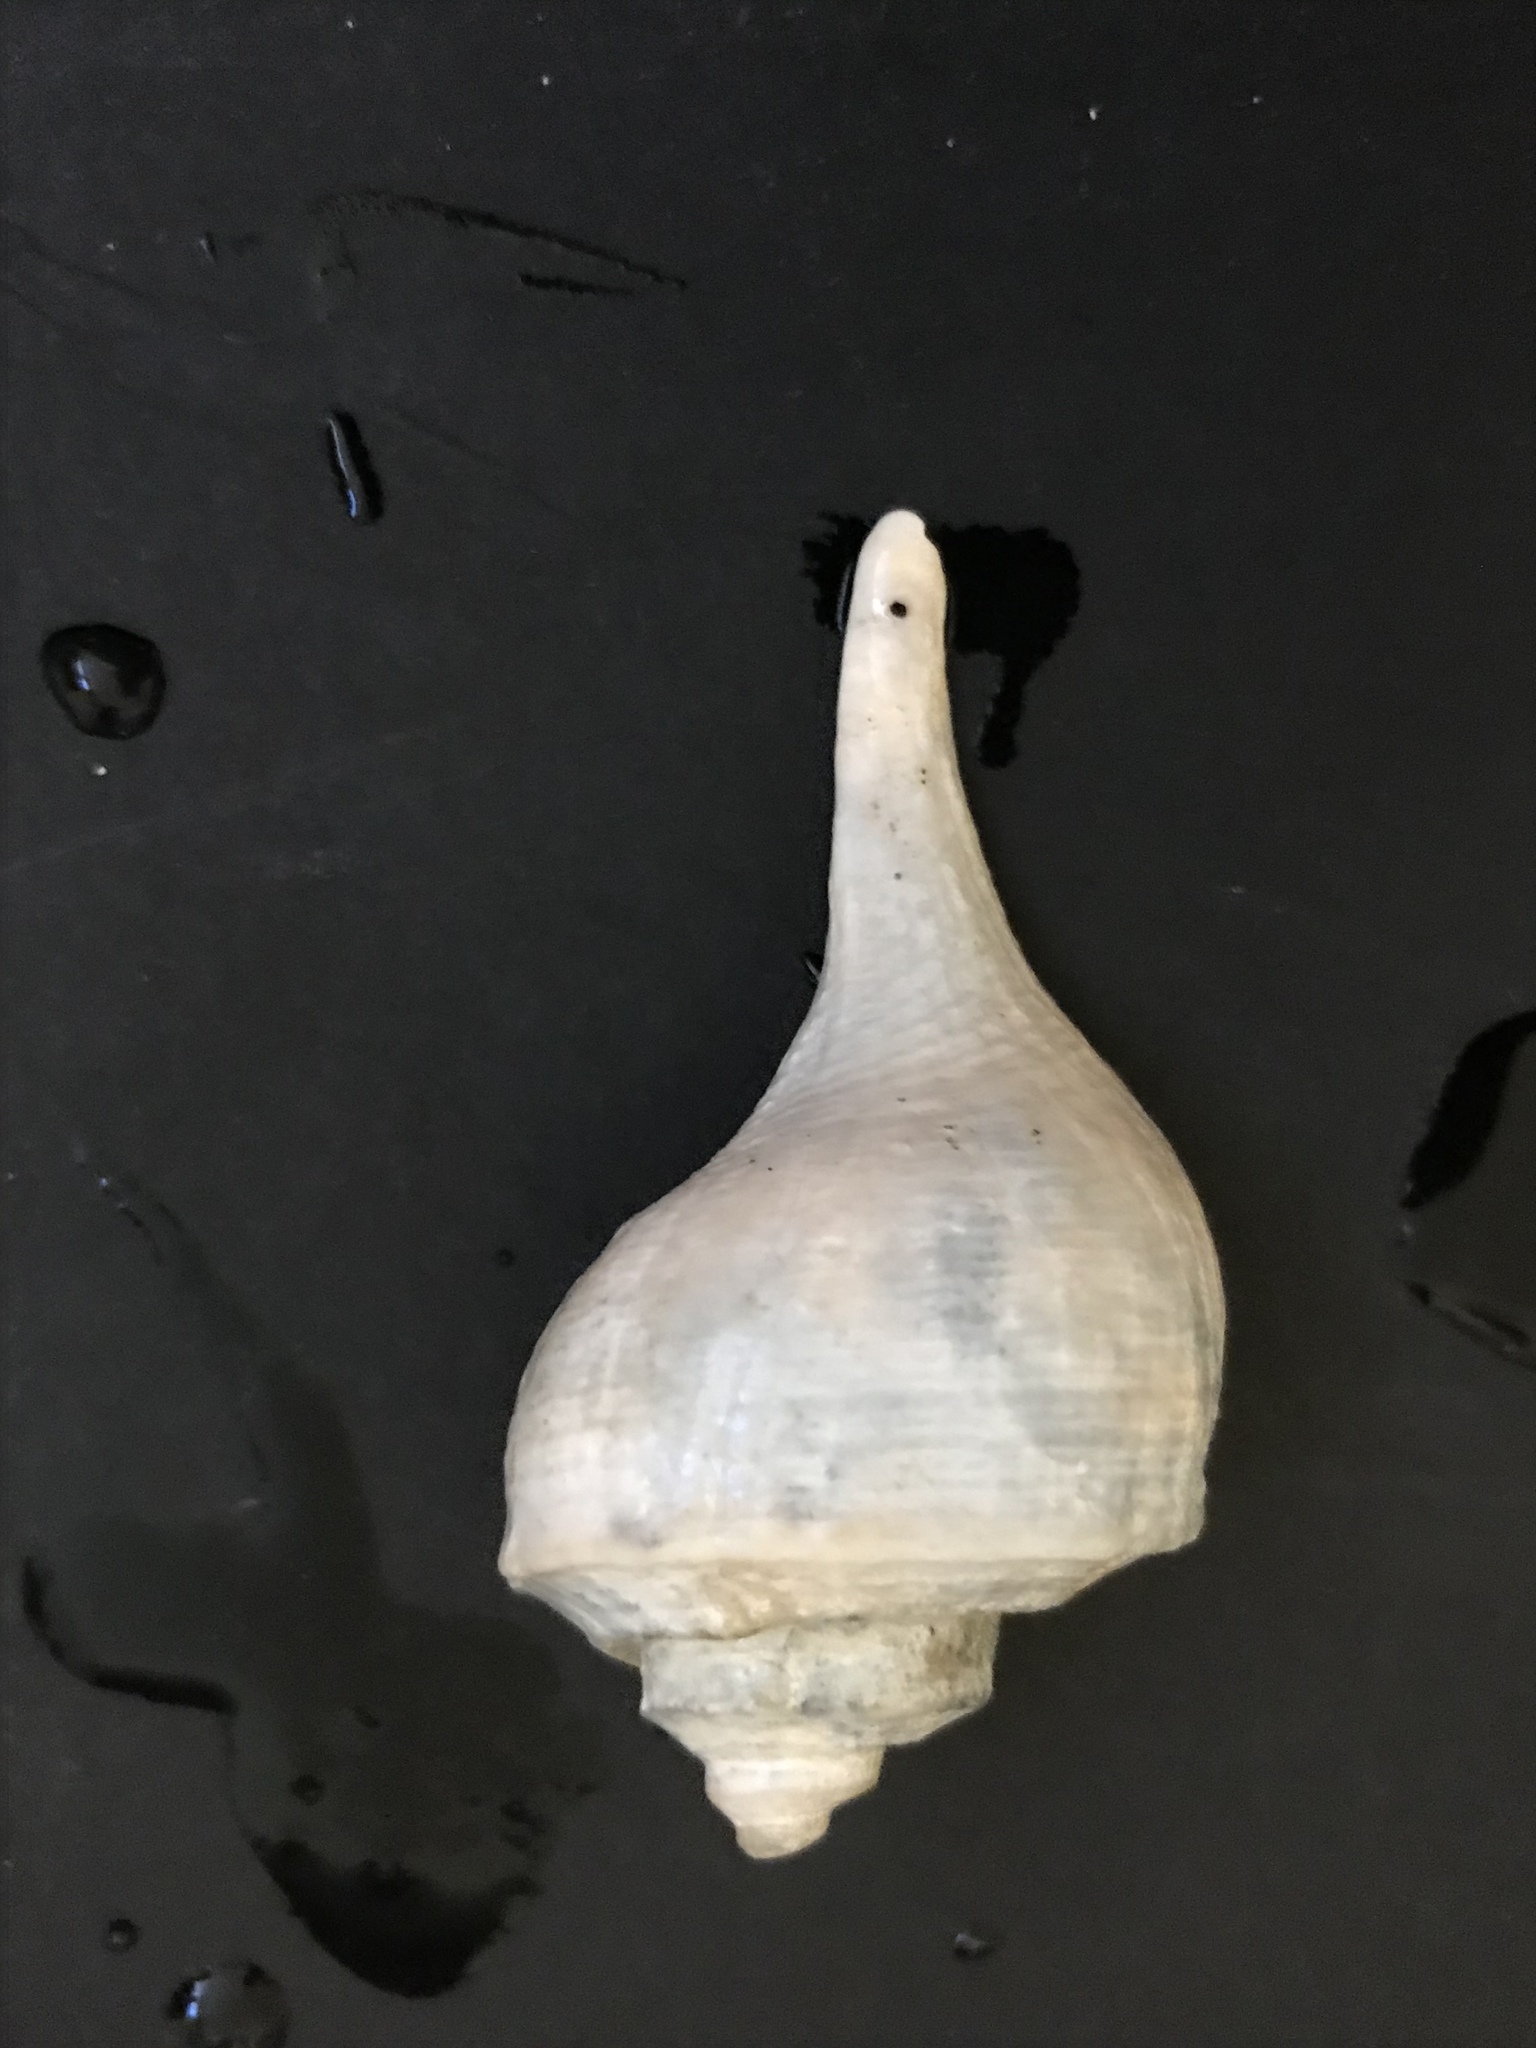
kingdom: Animalia
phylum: Mollusca
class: Gastropoda
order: Neogastropoda
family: Busyconidae
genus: Busycotypus
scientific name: Busycotypus canaliculatus
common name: Channeled whelk
